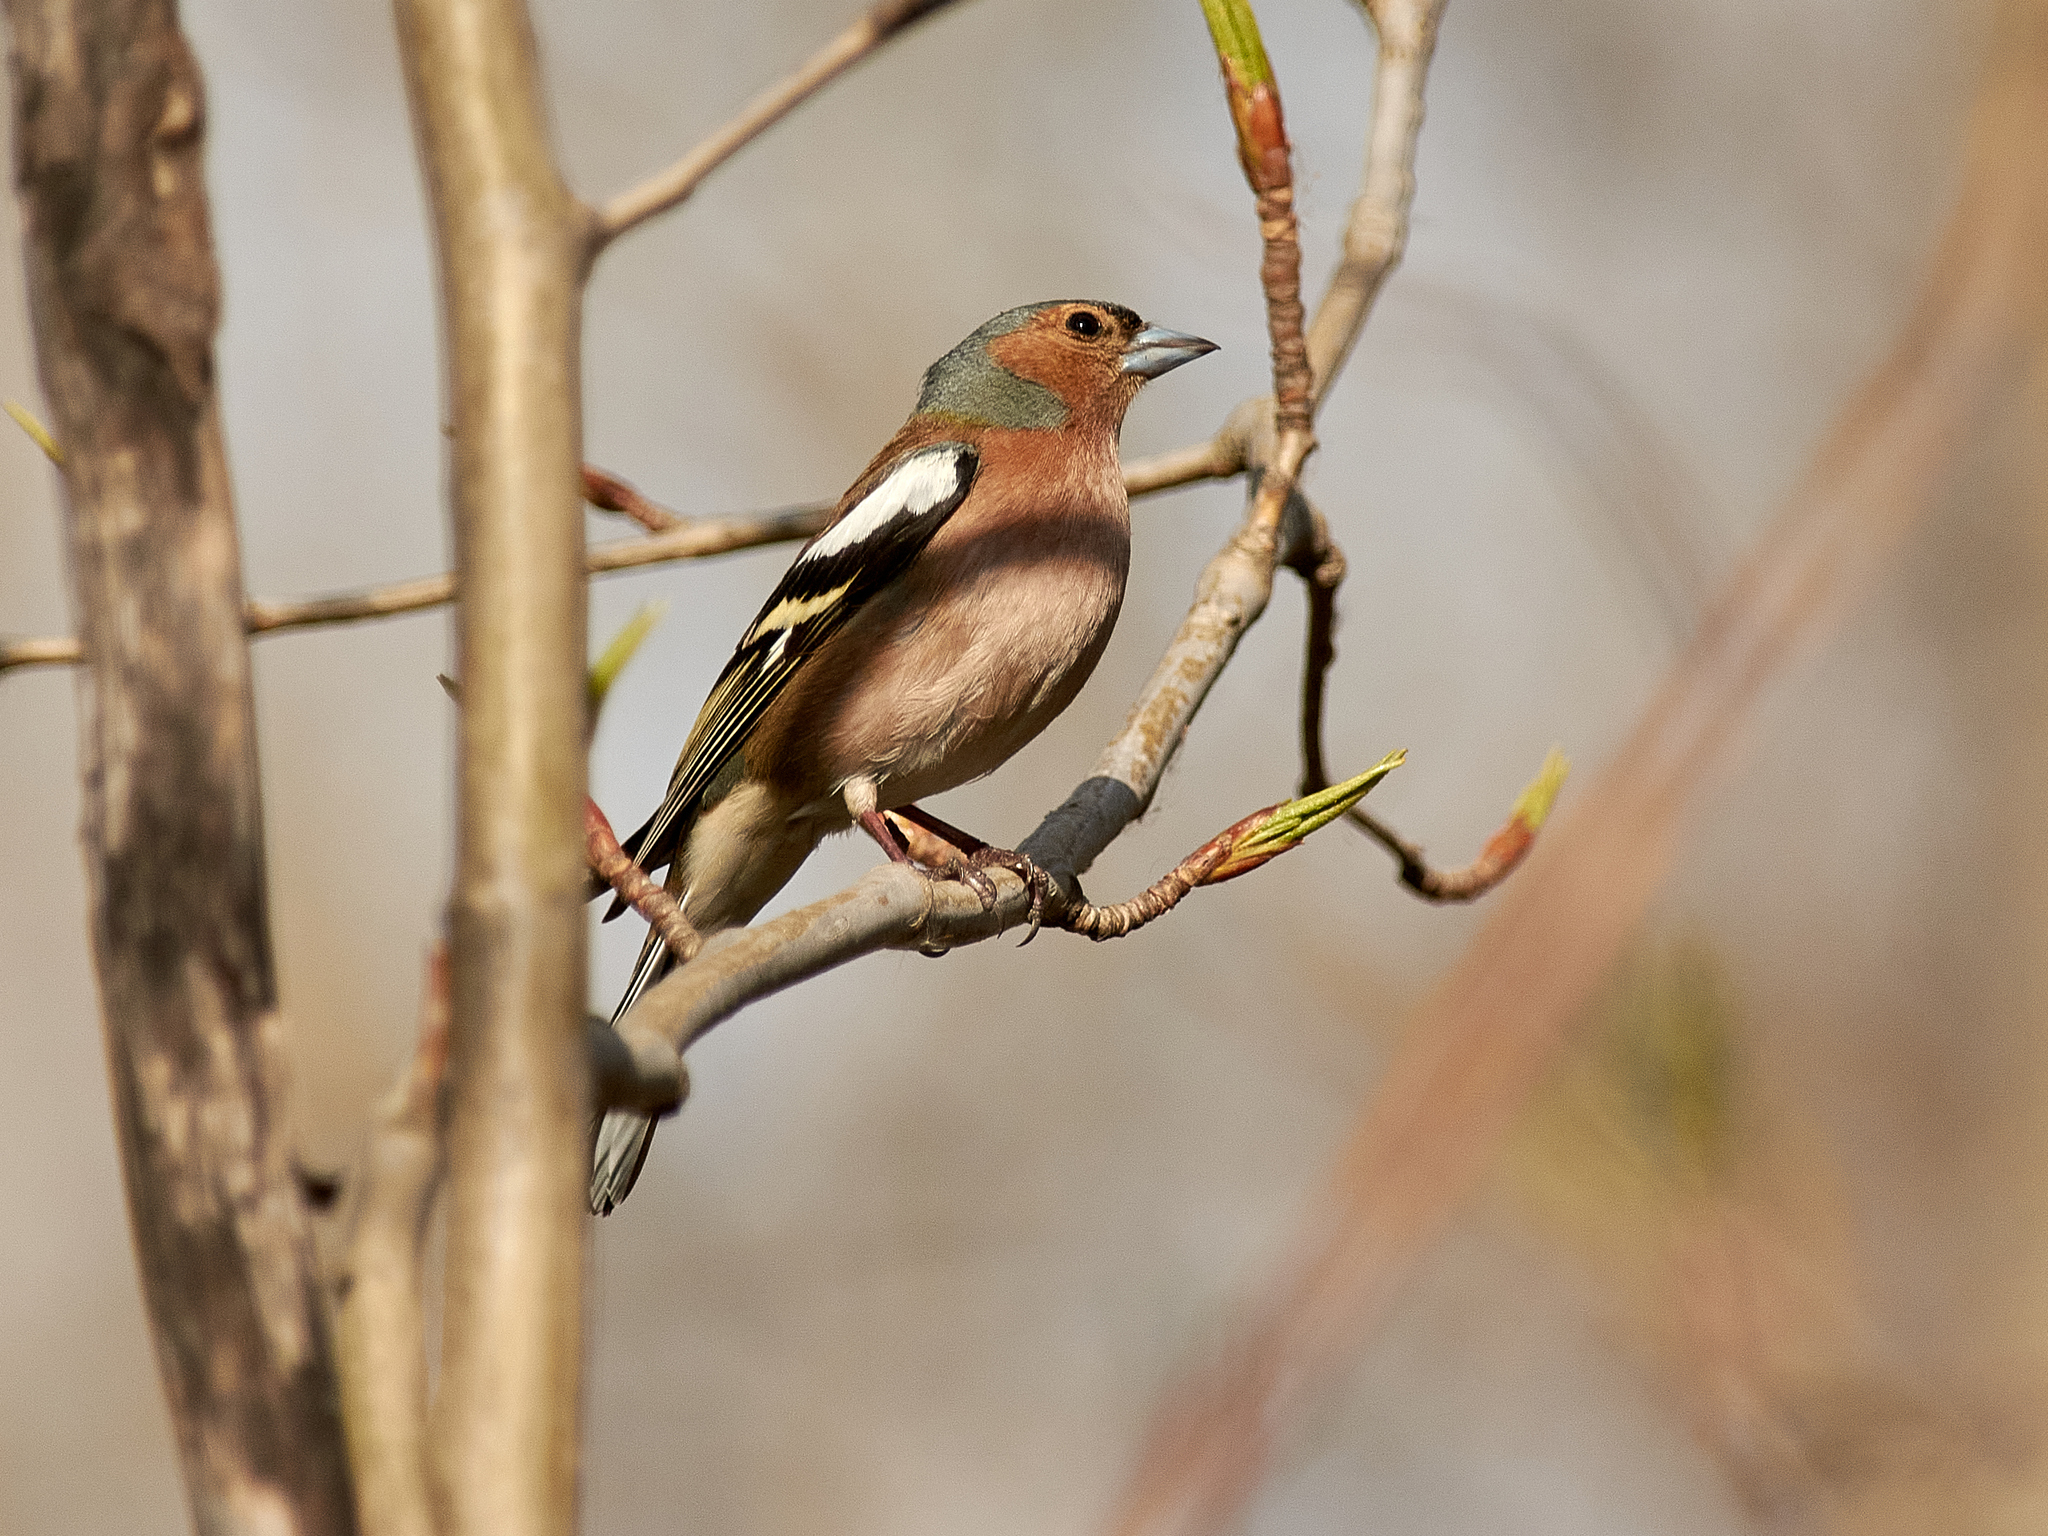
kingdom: Animalia
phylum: Chordata
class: Aves
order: Passeriformes
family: Fringillidae
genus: Fringilla
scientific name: Fringilla coelebs
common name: Common chaffinch
